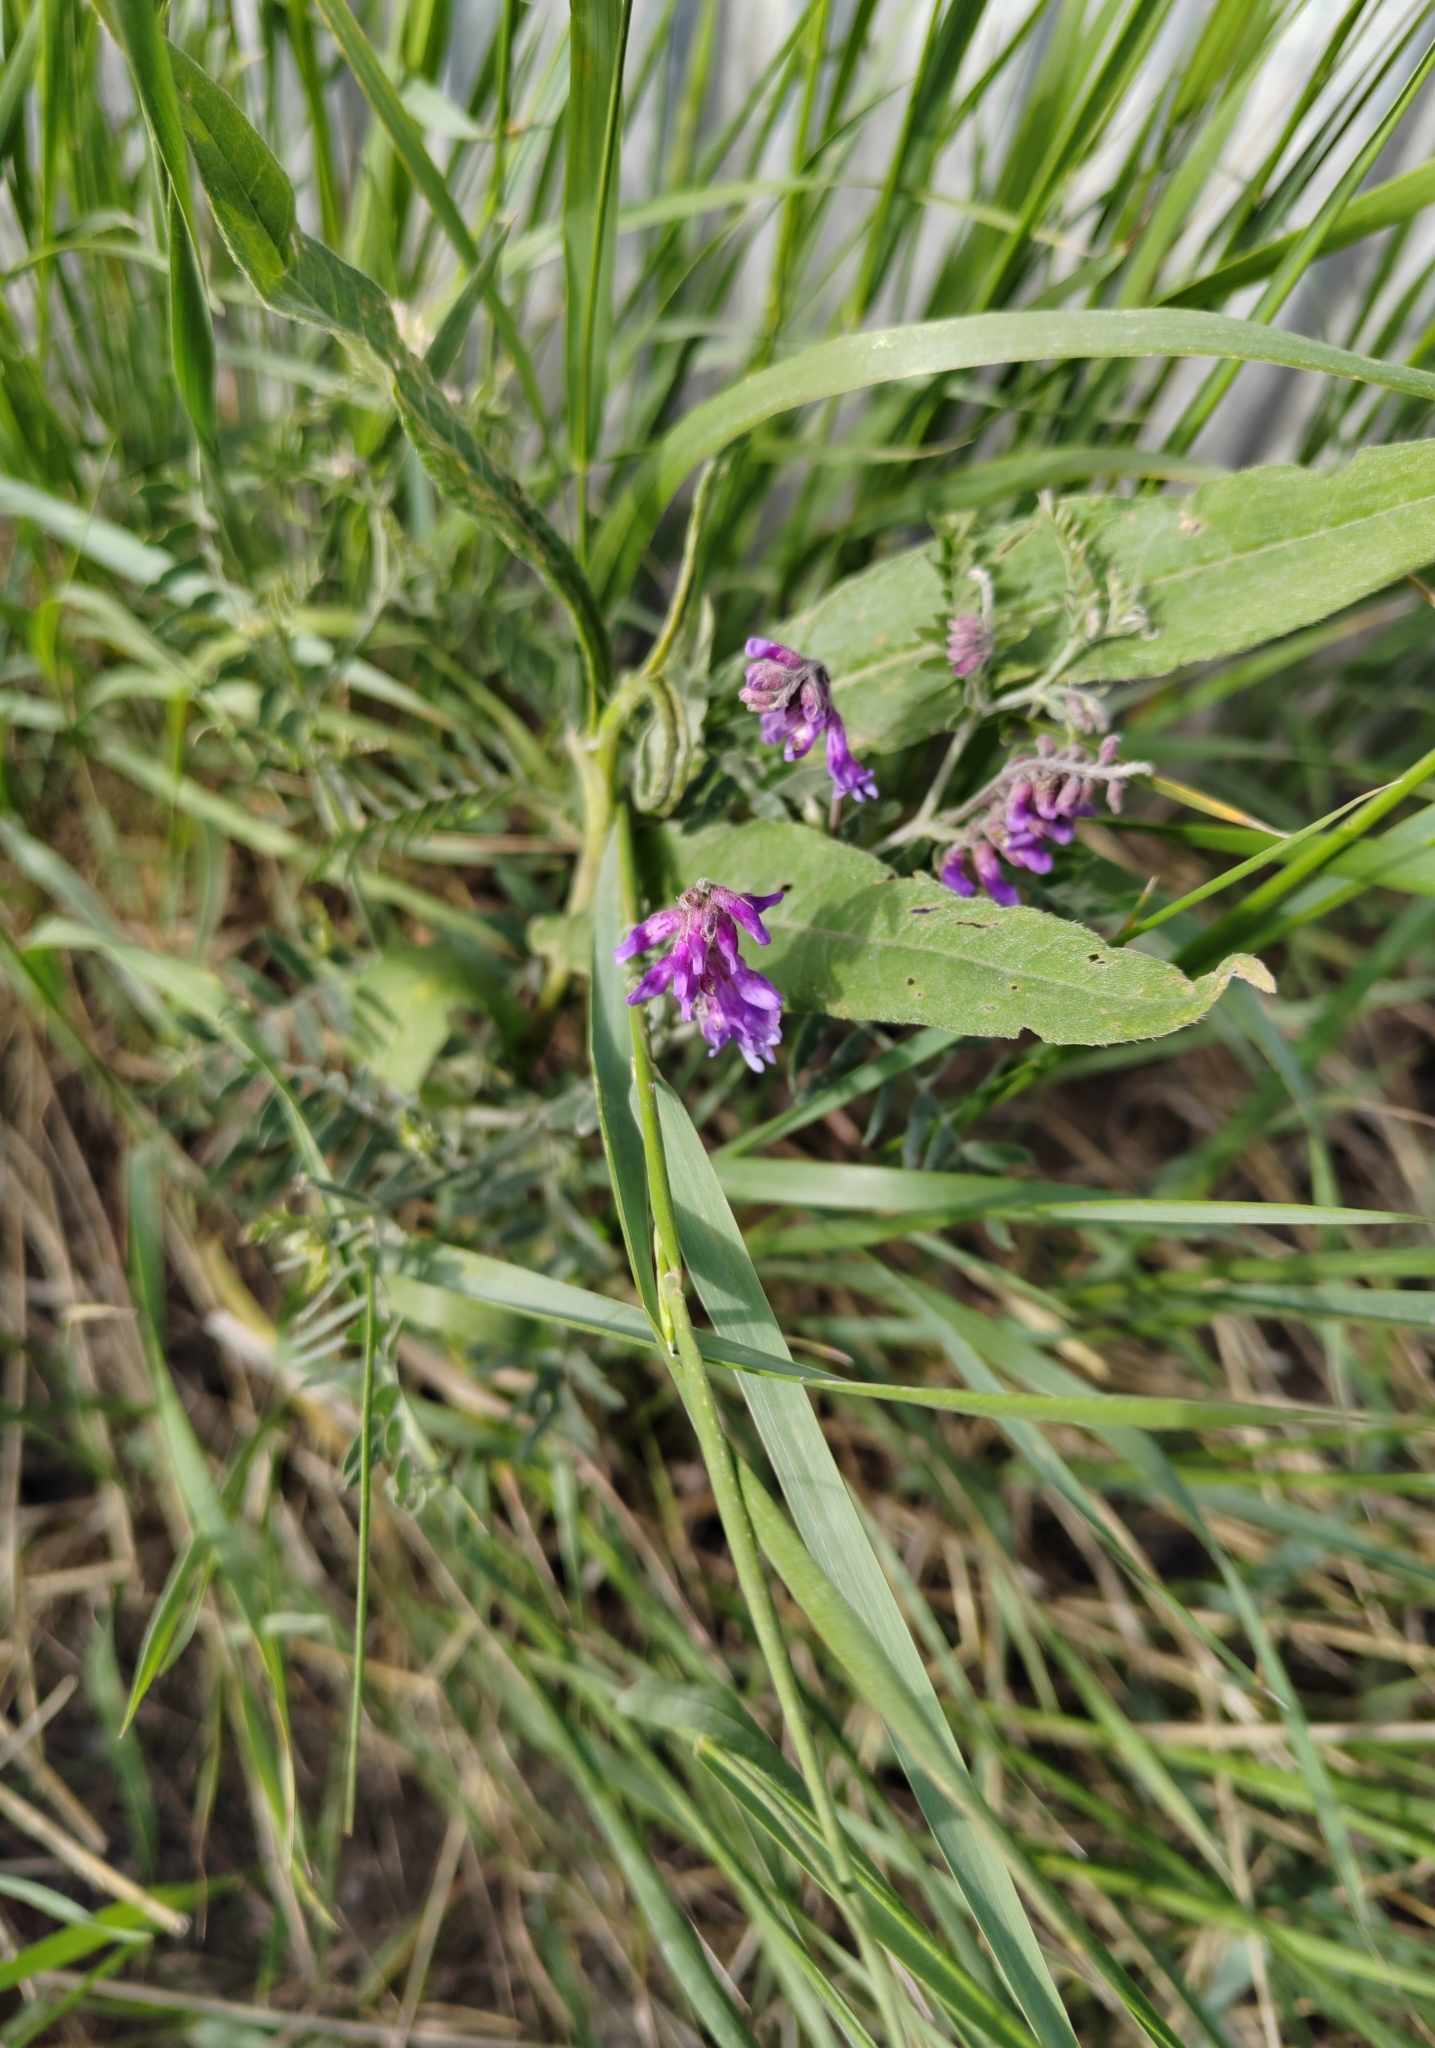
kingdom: Plantae
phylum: Tracheophyta
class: Magnoliopsida
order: Fabales
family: Fabaceae
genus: Vicia
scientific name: Vicia cracca
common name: Bird vetch
